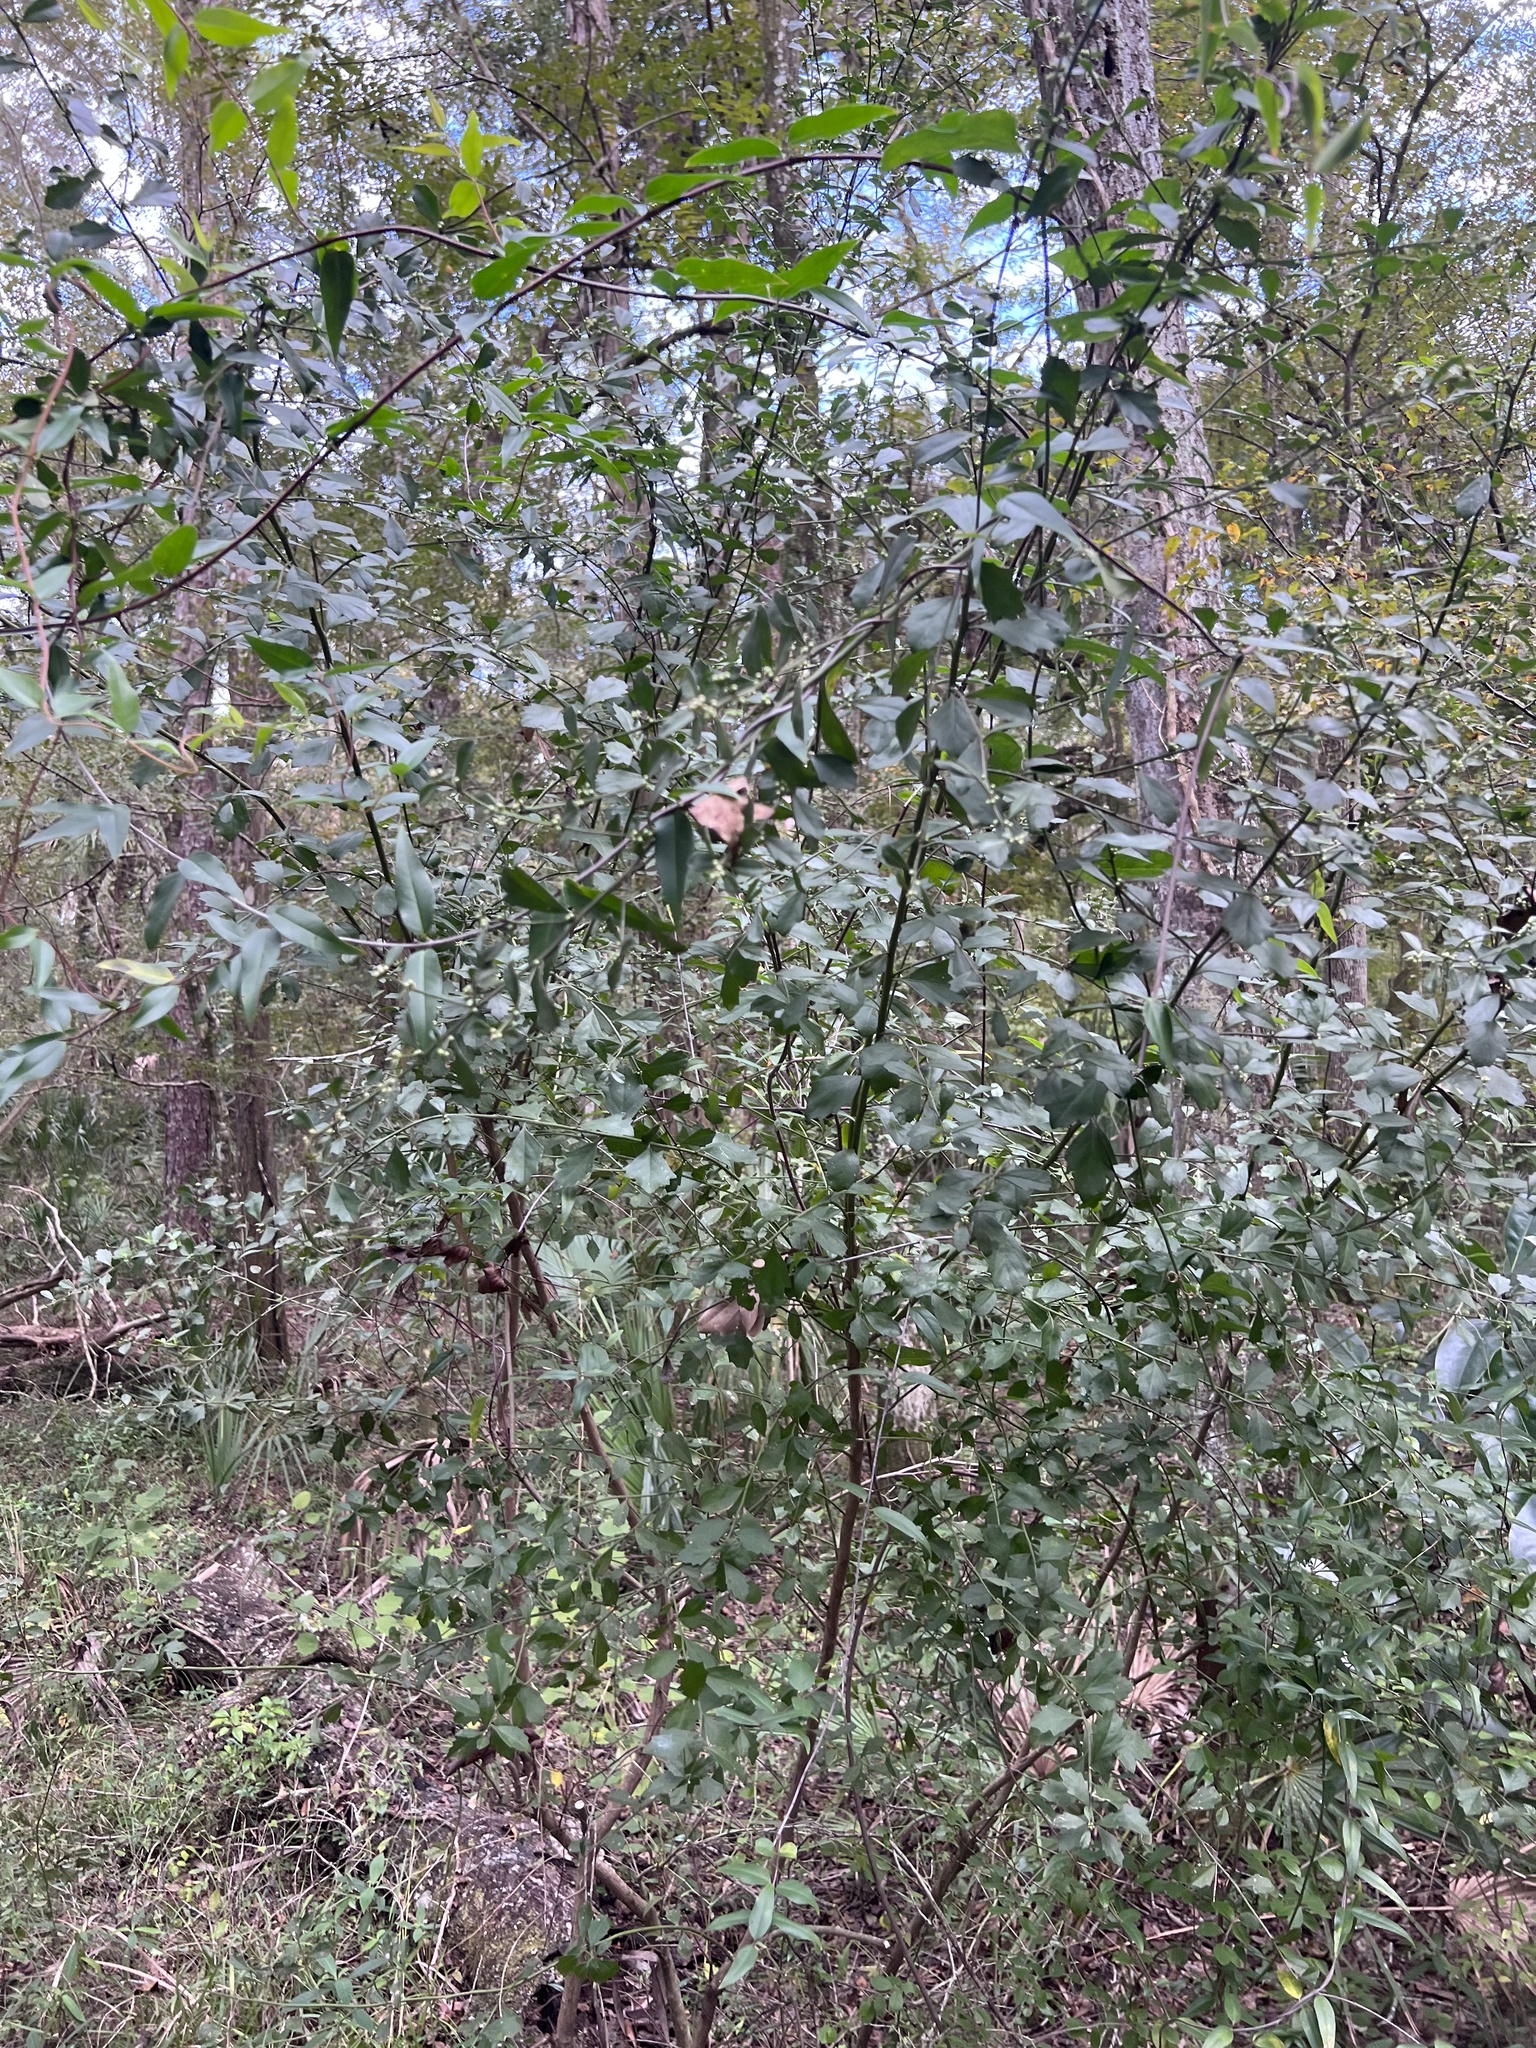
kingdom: Plantae
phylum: Tracheophyta
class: Magnoliopsida
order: Asterales
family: Asteraceae
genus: Baccharis
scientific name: Baccharis glomeruliflora
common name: Silverling groundsel bush
